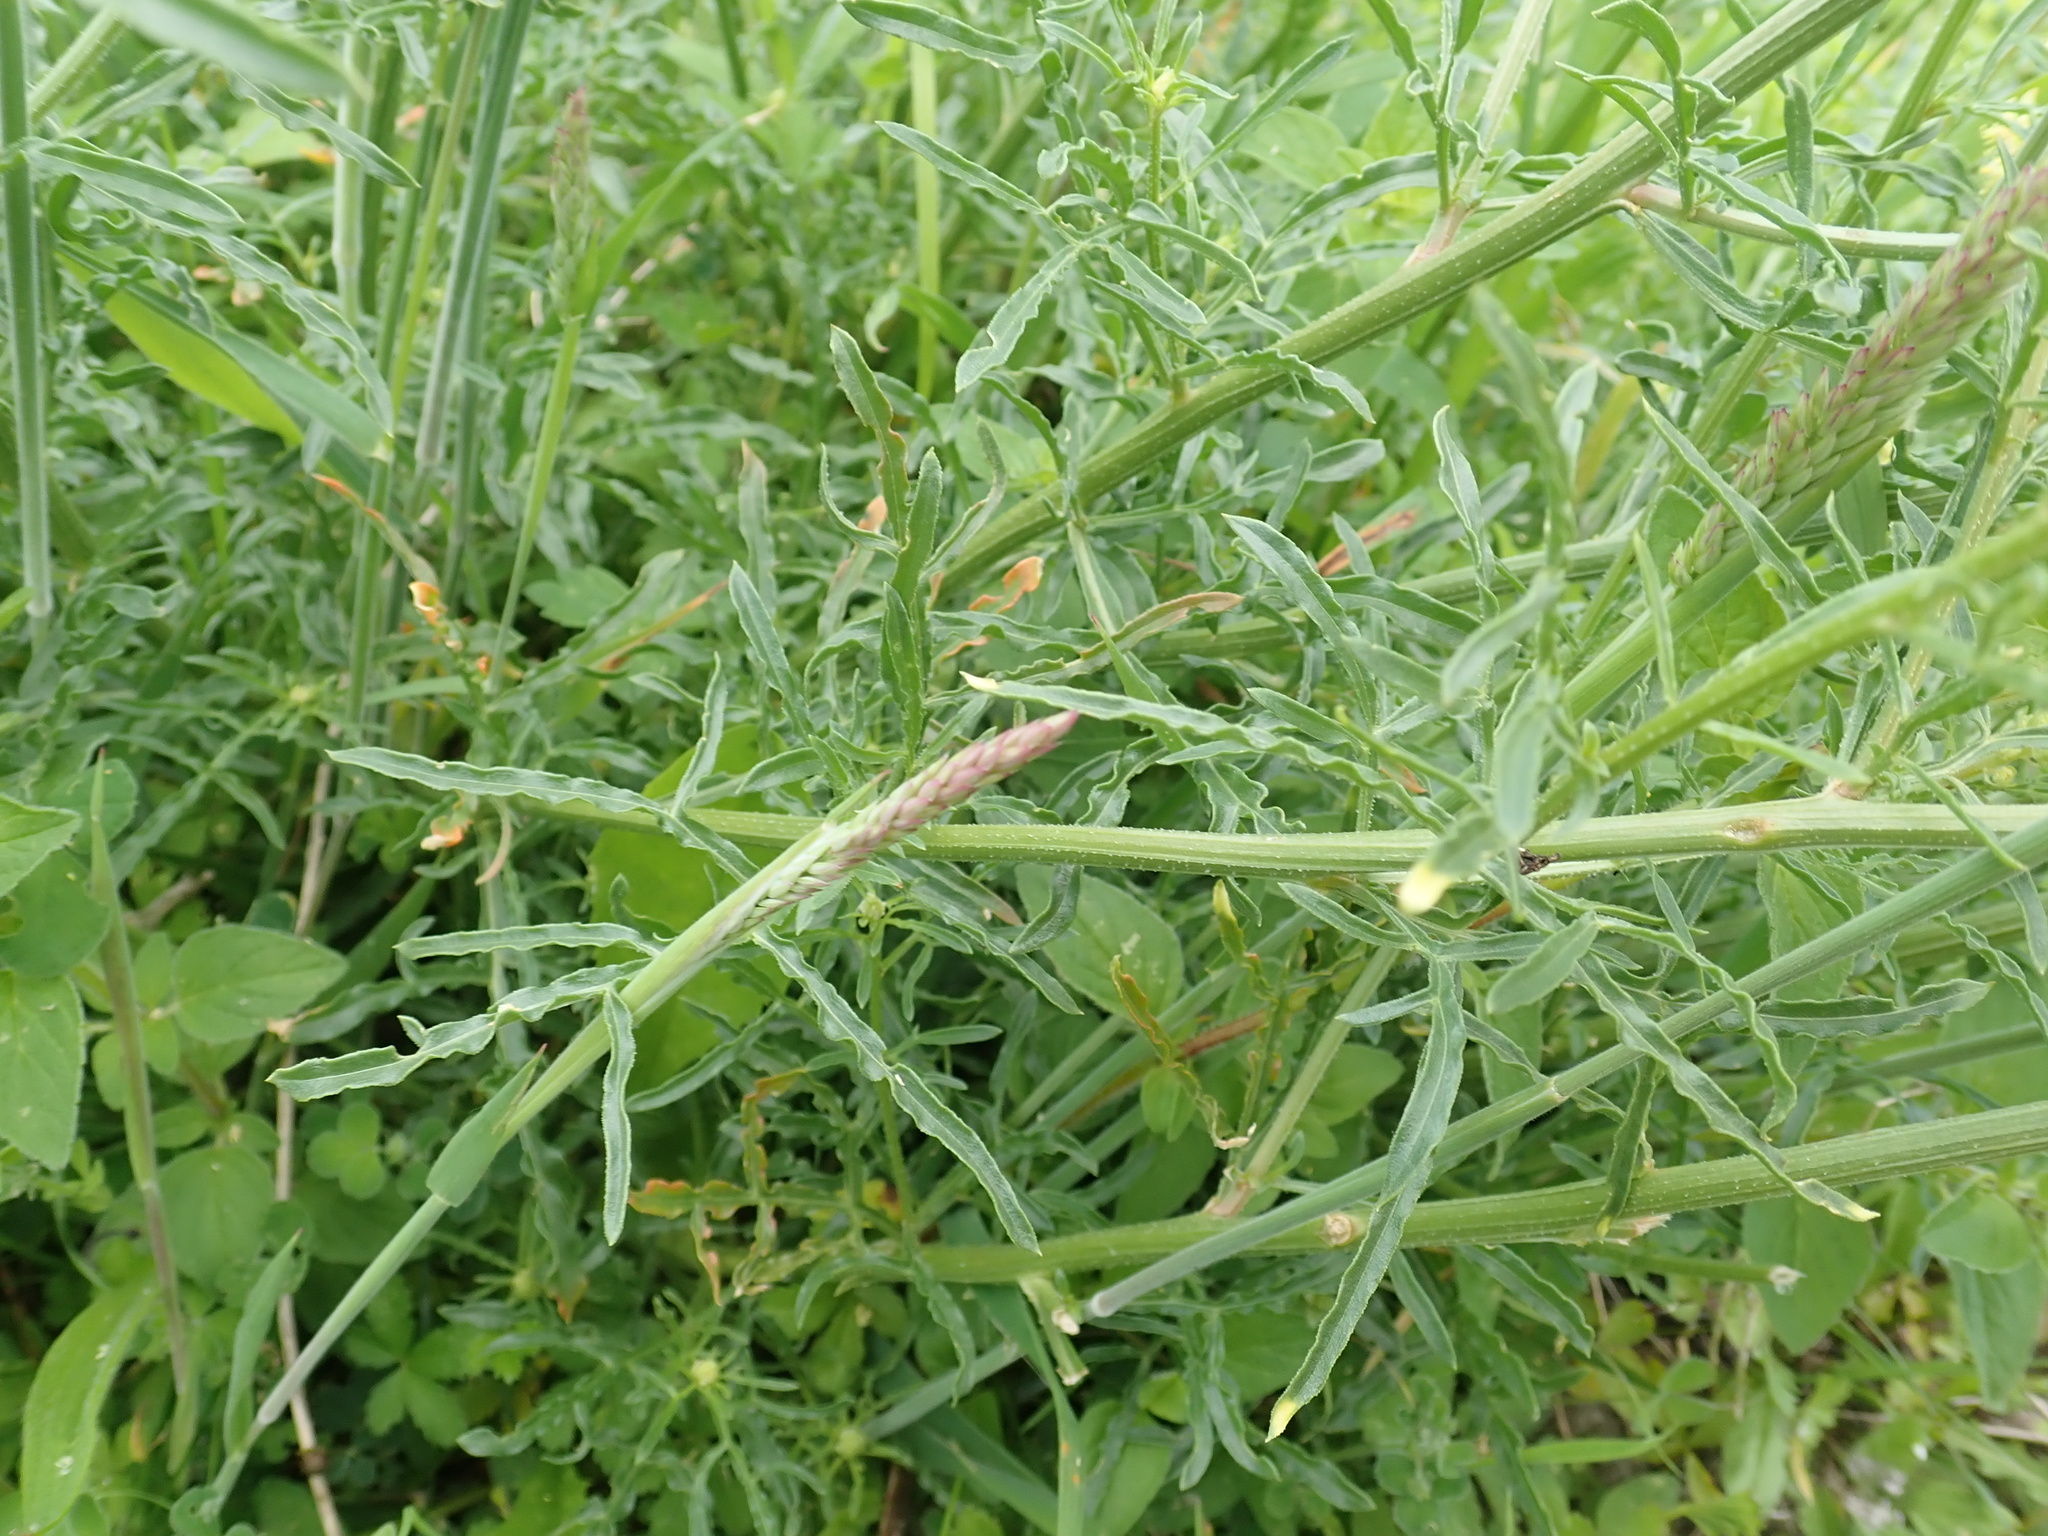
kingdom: Plantae
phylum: Tracheophyta
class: Magnoliopsida
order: Brassicales
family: Resedaceae
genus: Reseda
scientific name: Reseda lutea
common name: Wild mignonette
